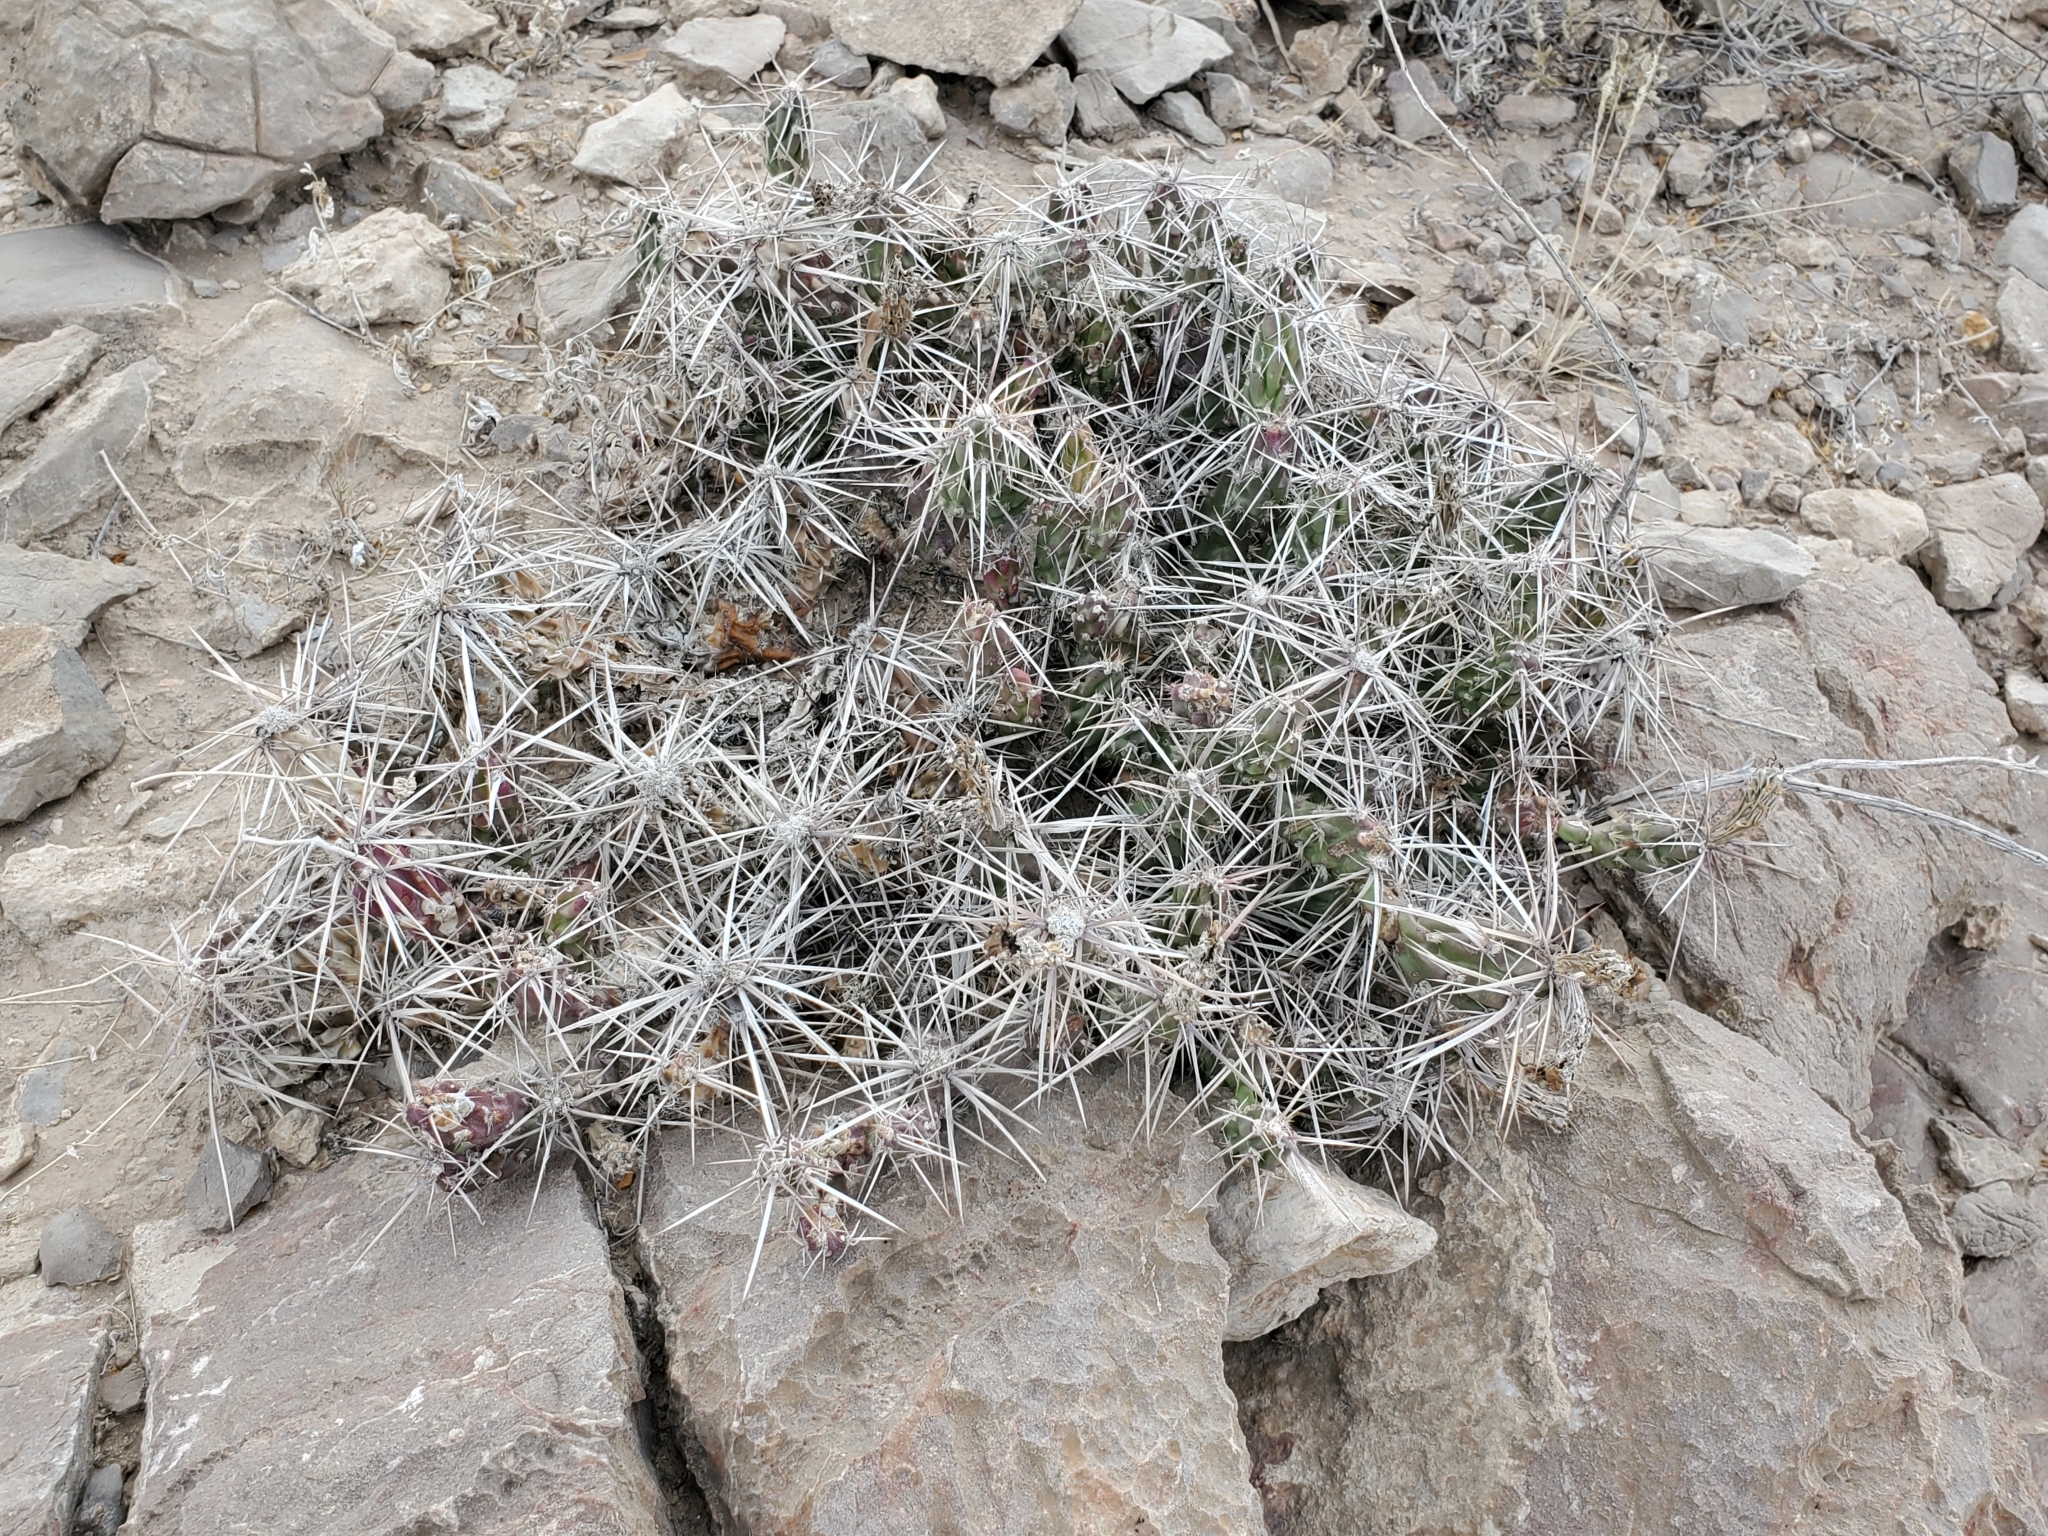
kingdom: Plantae
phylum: Tracheophyta
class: Magnoliopsida
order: Caryophyllales
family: Cactaceae
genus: Grusonia
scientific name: Grusonia aggeria
